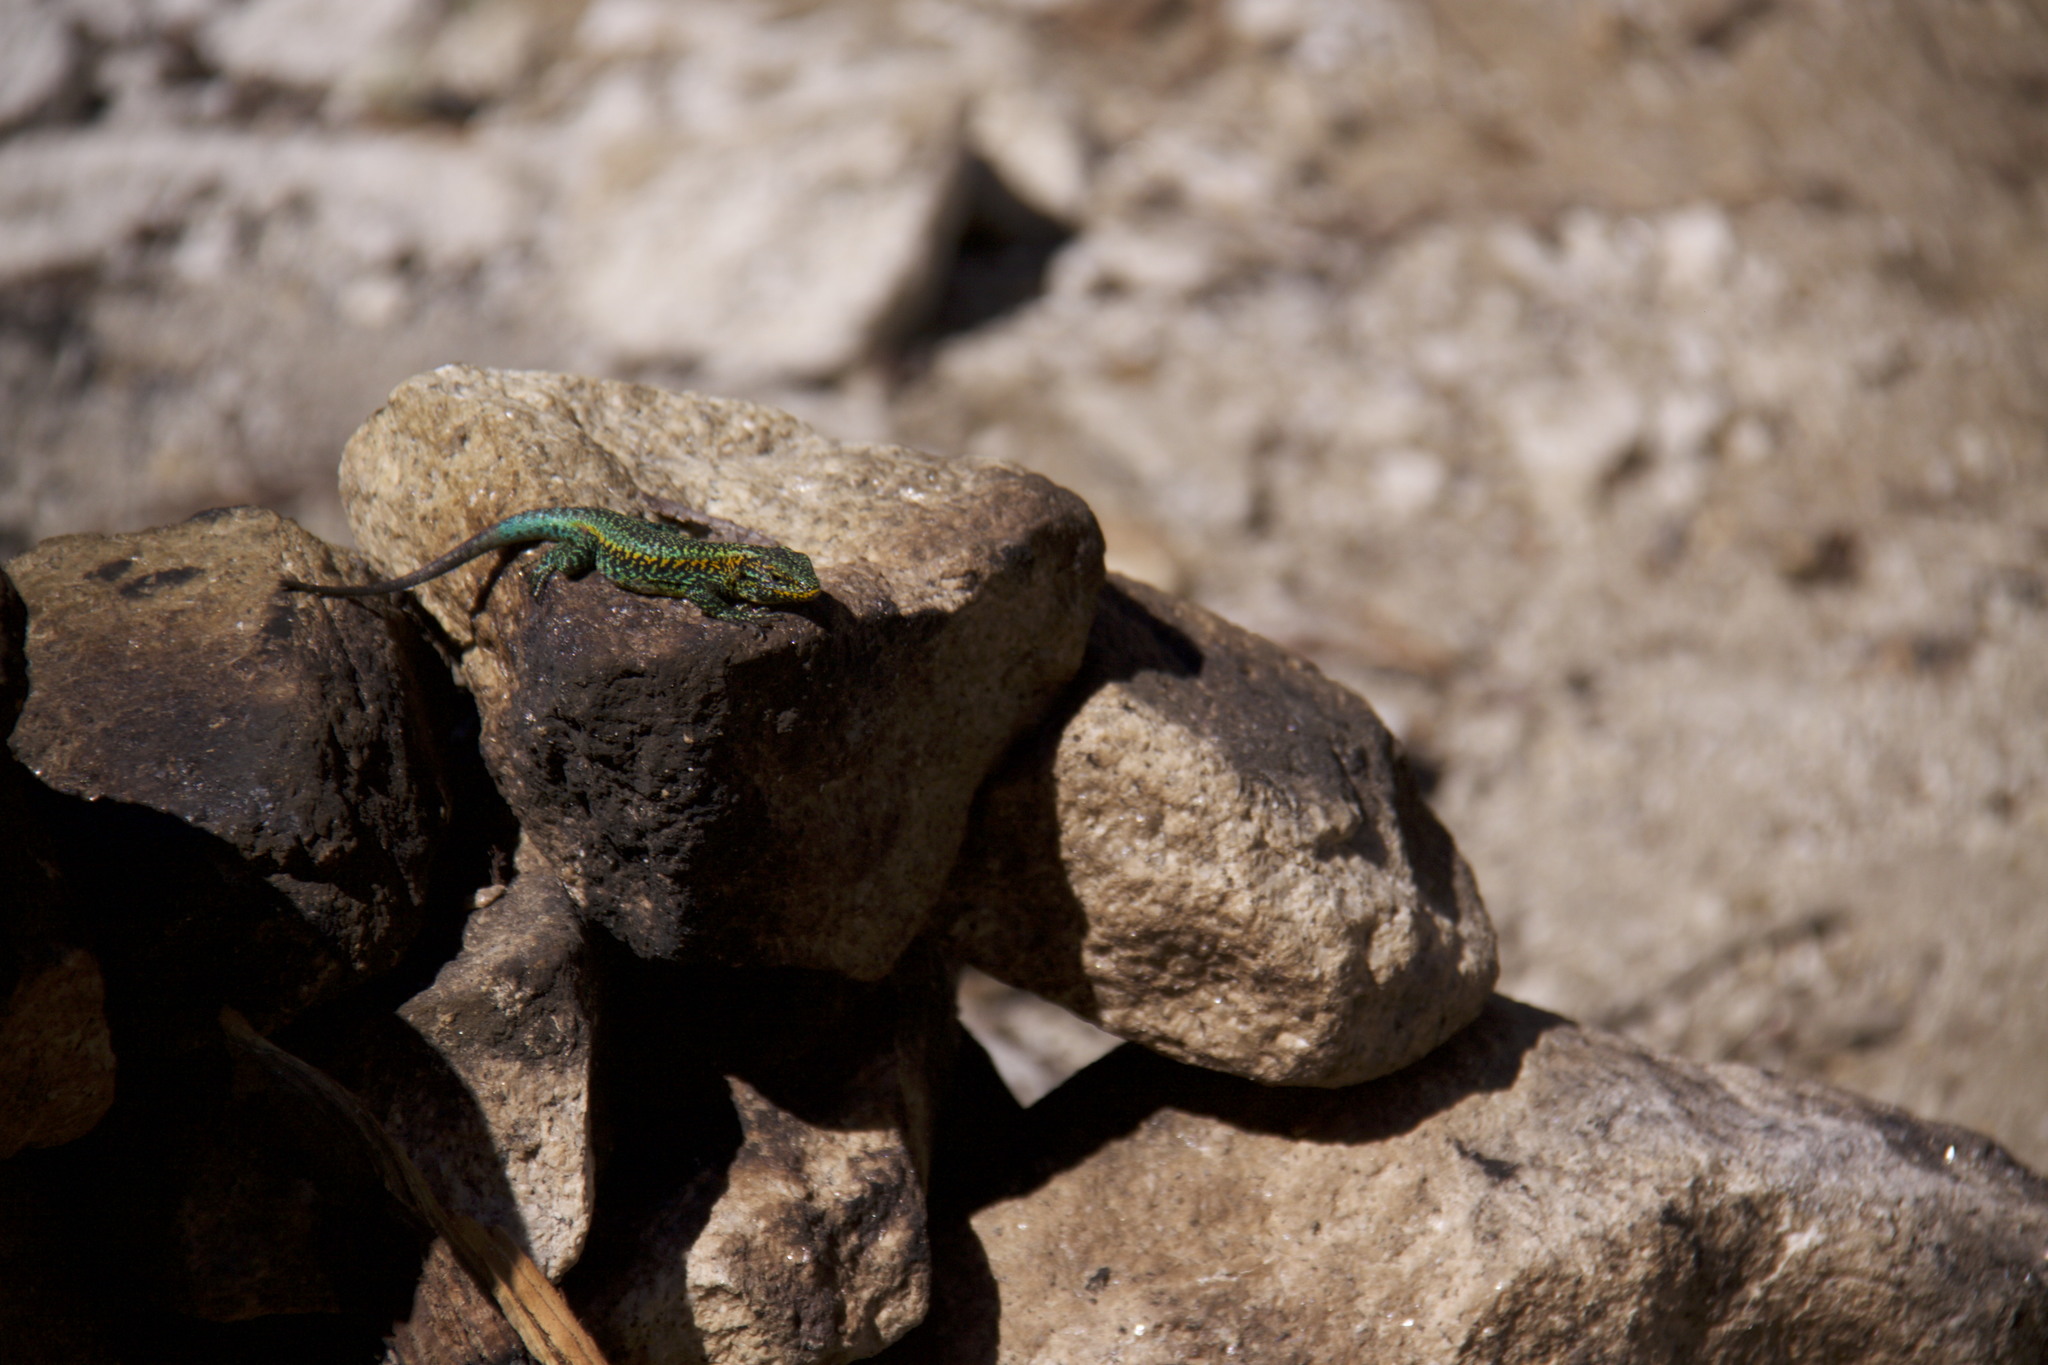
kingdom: Animalia
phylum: Chordata
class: Squamata
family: Liolaemidae
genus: Liolaemus
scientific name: Liolaemus pictus
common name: Painted tree iguana
